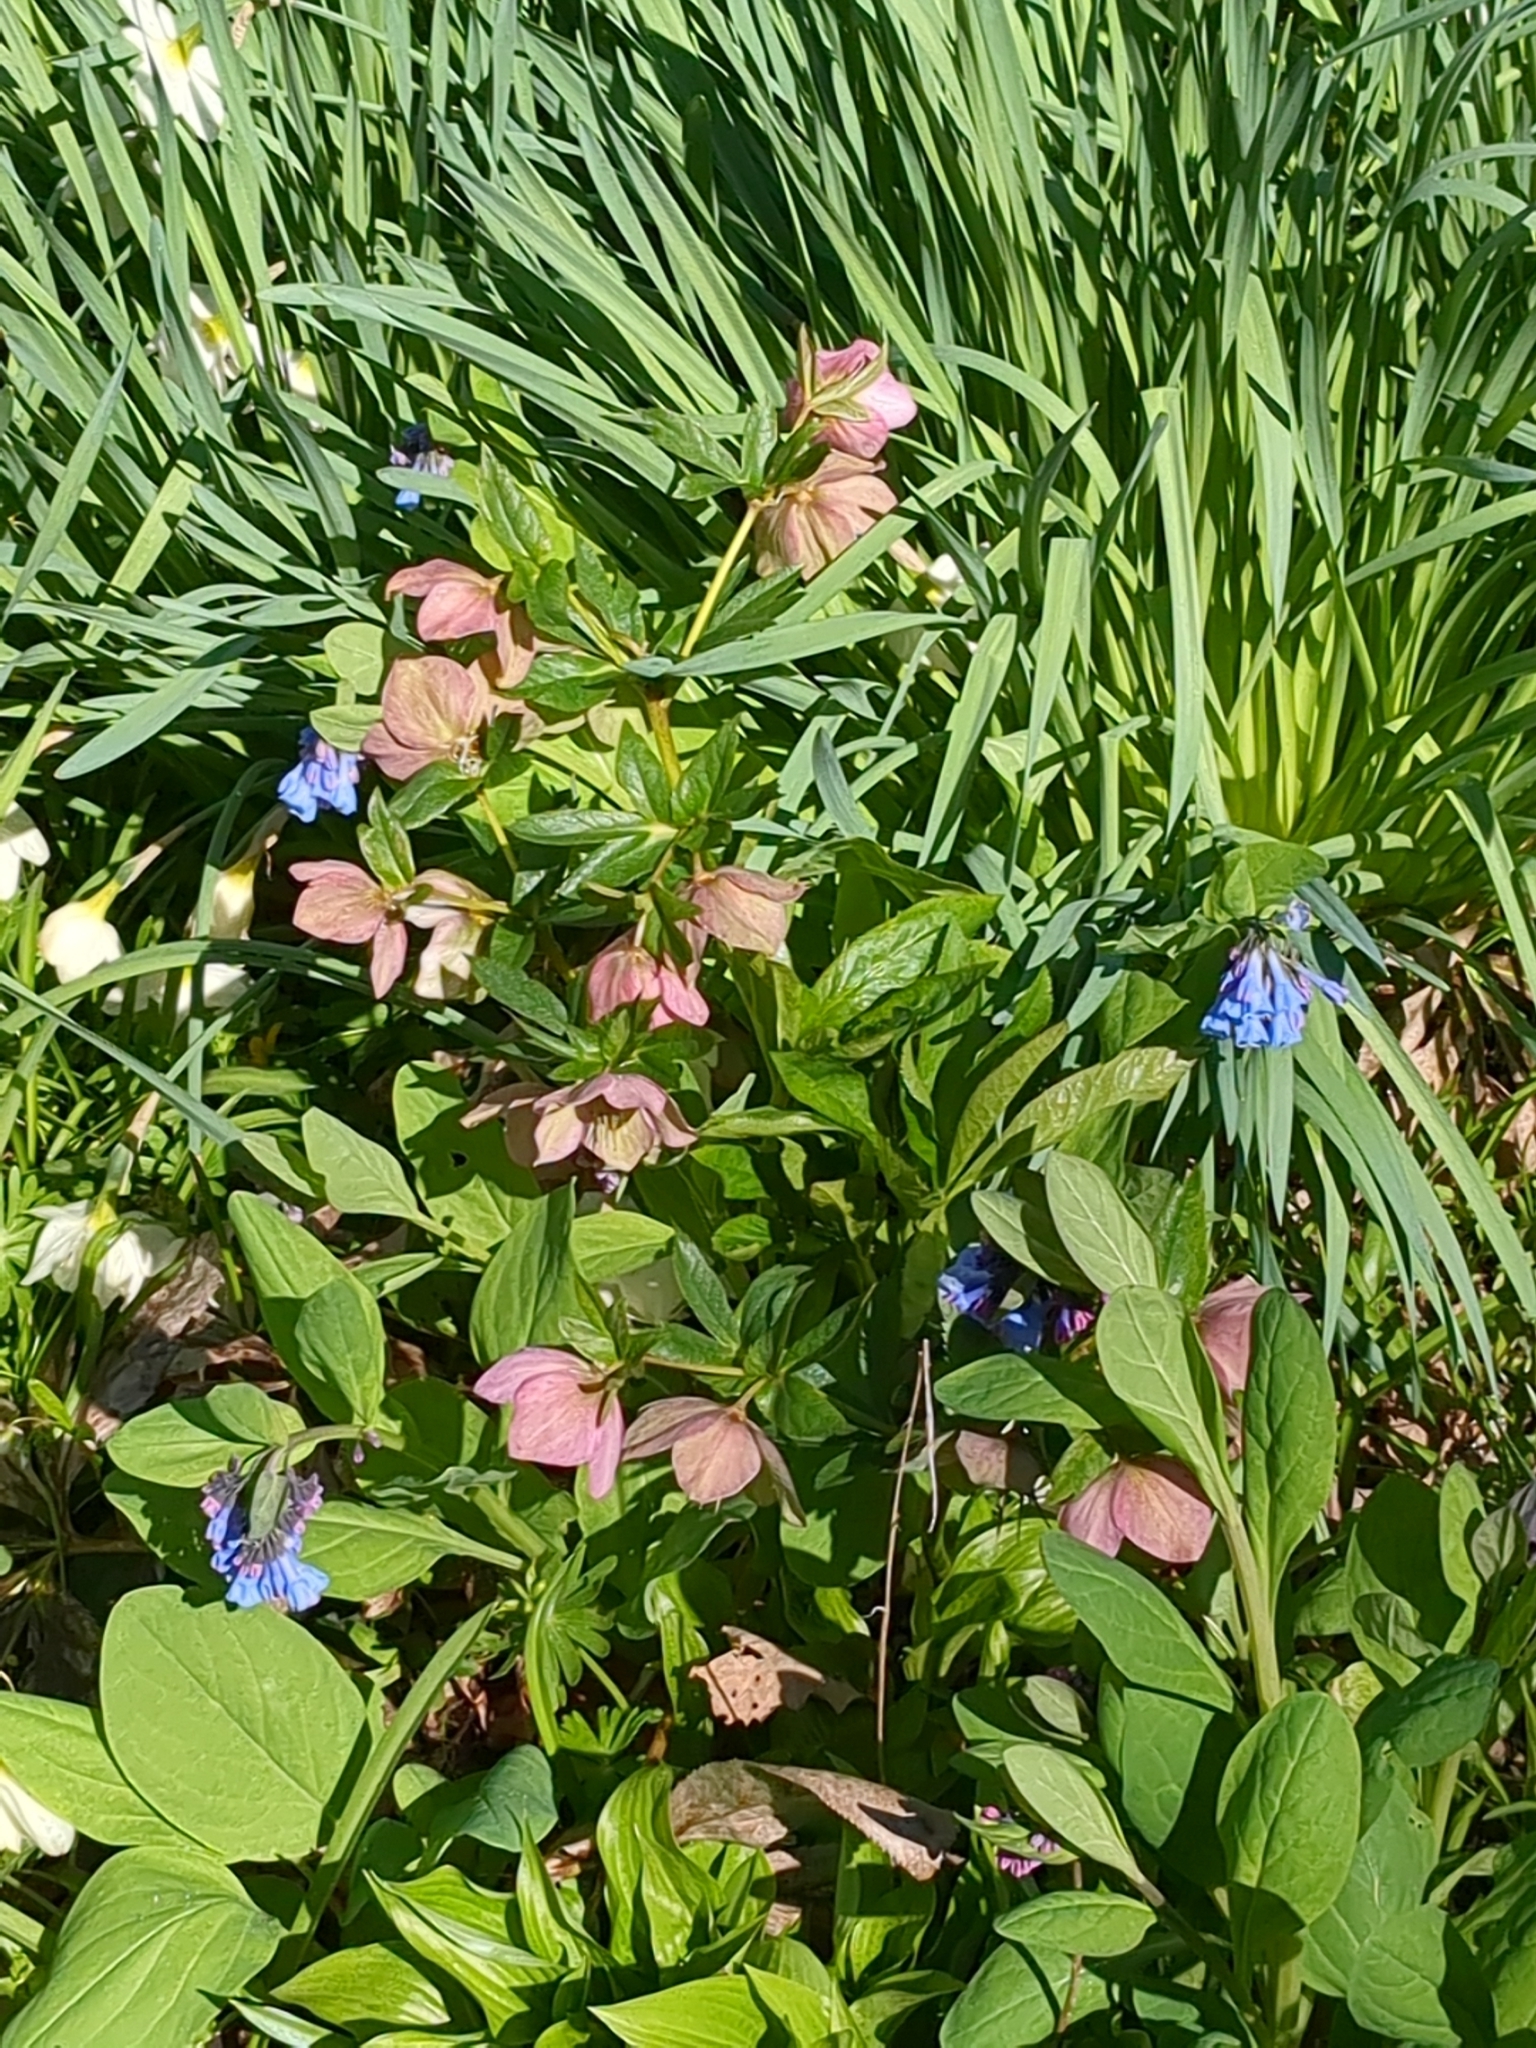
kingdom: Plantae
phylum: Tracheophyta
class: Magnoliopsida
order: Ranunculales
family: Ranunculaceae
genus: Helleborus
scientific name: Helleborus orientalis
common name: Lenten-rose
